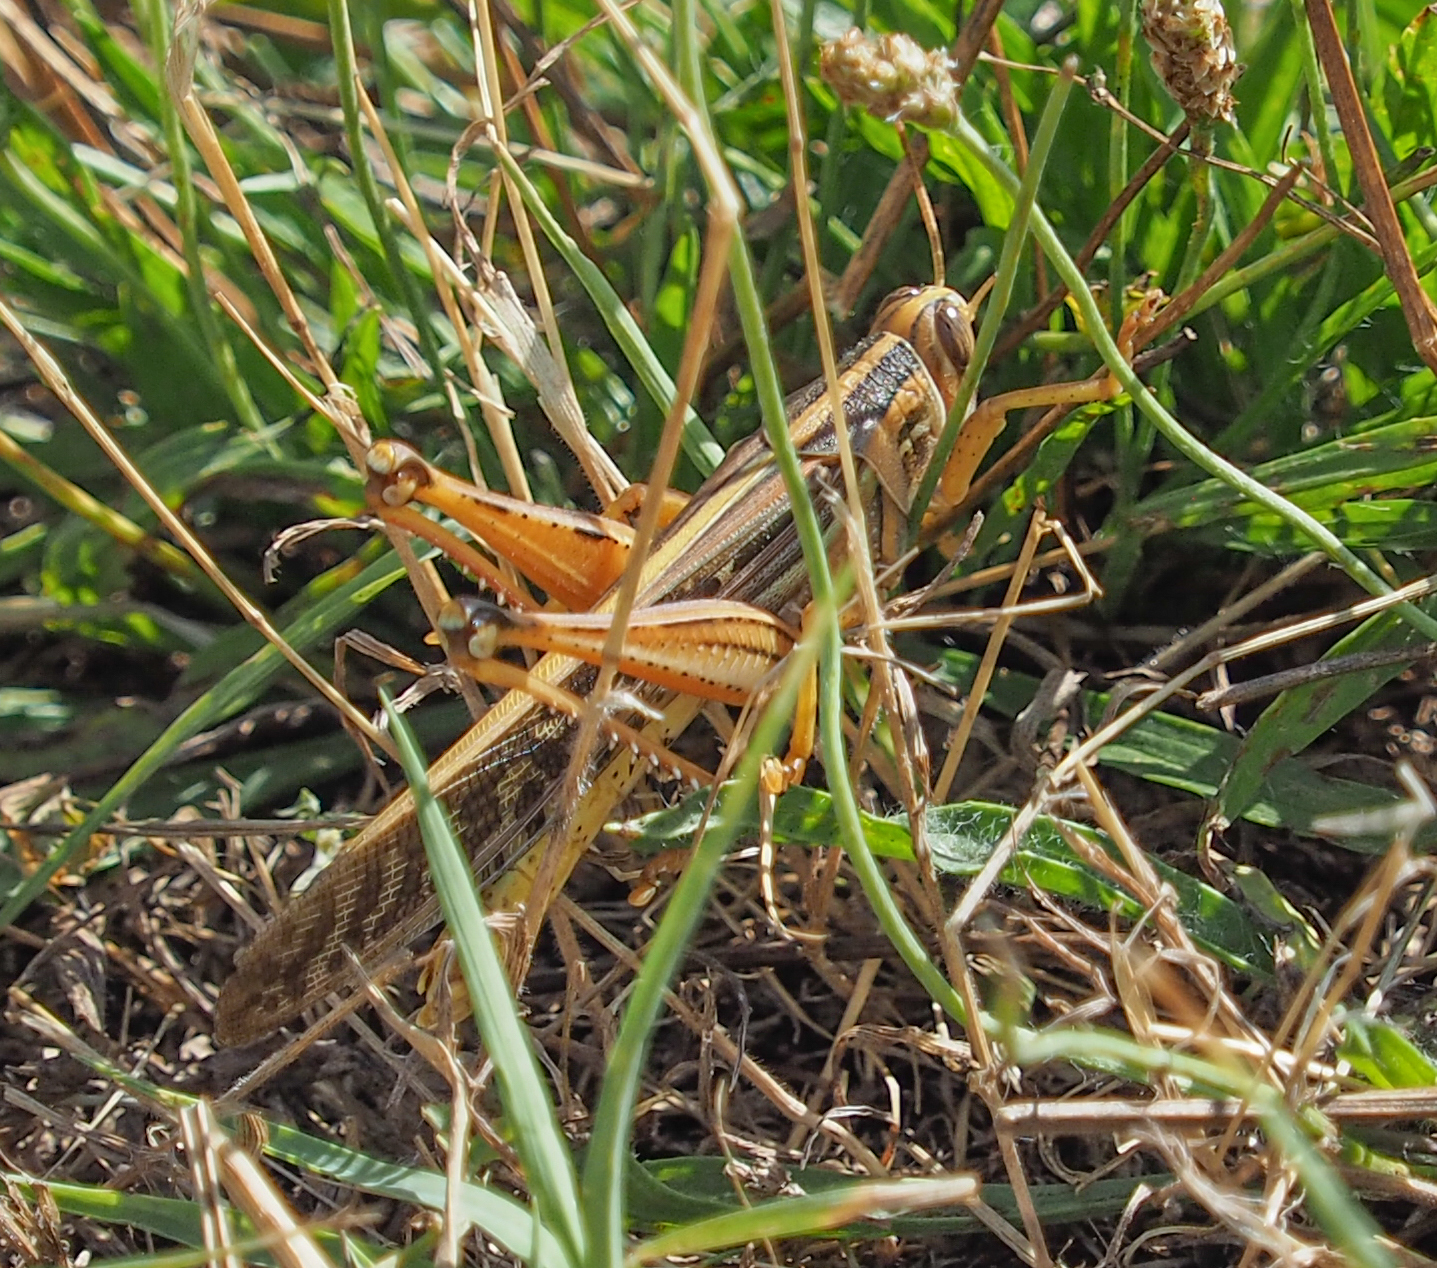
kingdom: Animalia
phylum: Arthropoda
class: Insecta
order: Orthoptera
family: Acrididae
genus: Schistocerca
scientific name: Schistocerca americana
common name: American bird locust
